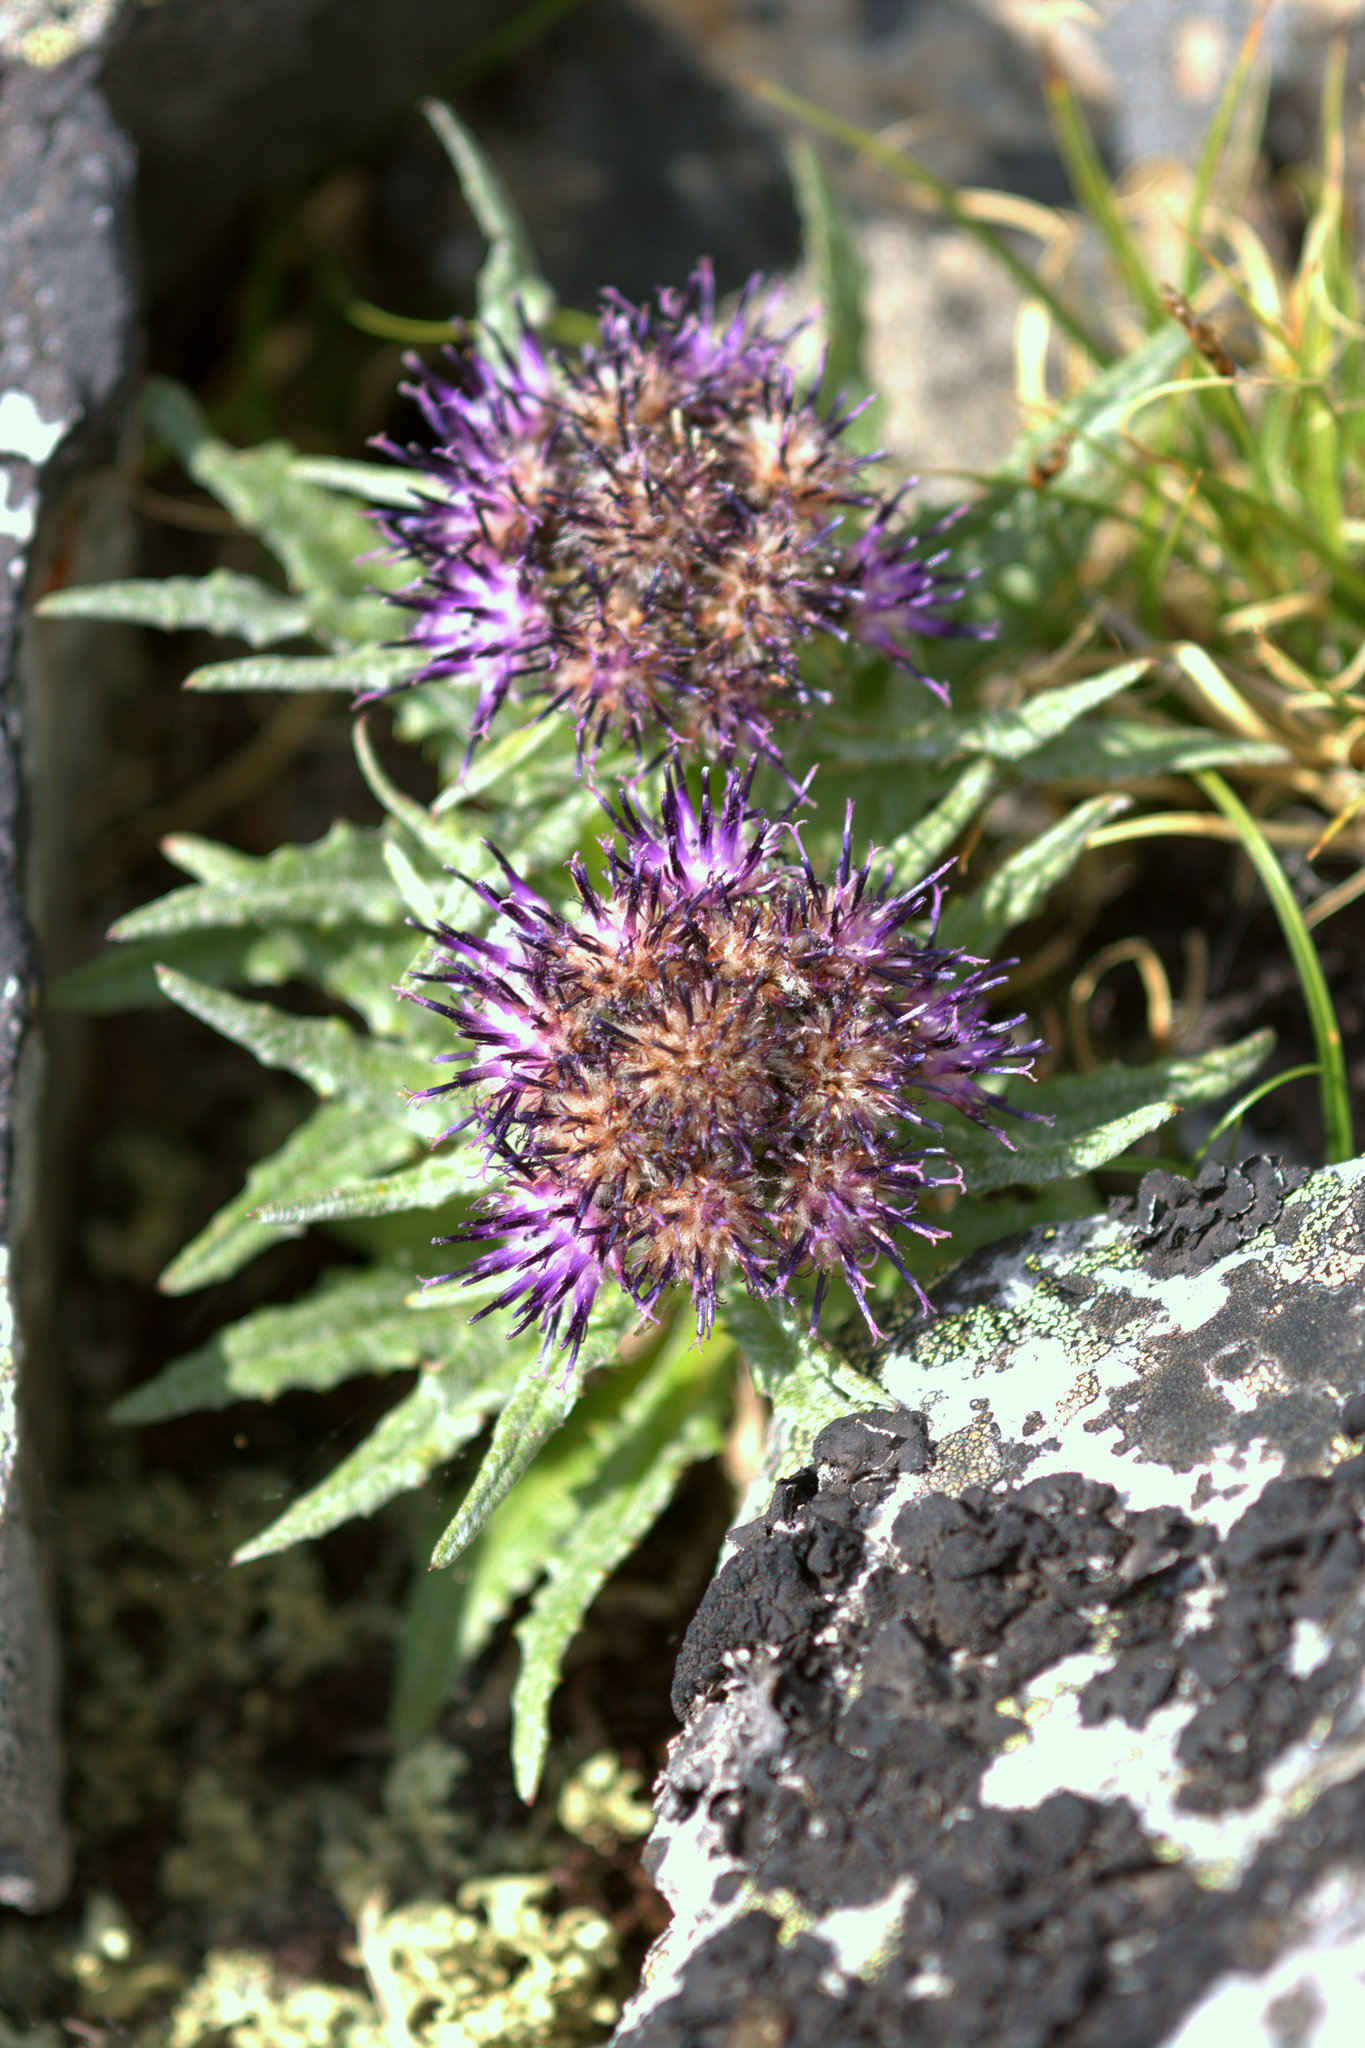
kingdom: Plantae
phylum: Tracheophyta
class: Magnoliopsida
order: Asterales
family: Asteraceae
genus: Saussurea
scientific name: Saussurea nuda
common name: Chaffless saw-wort
